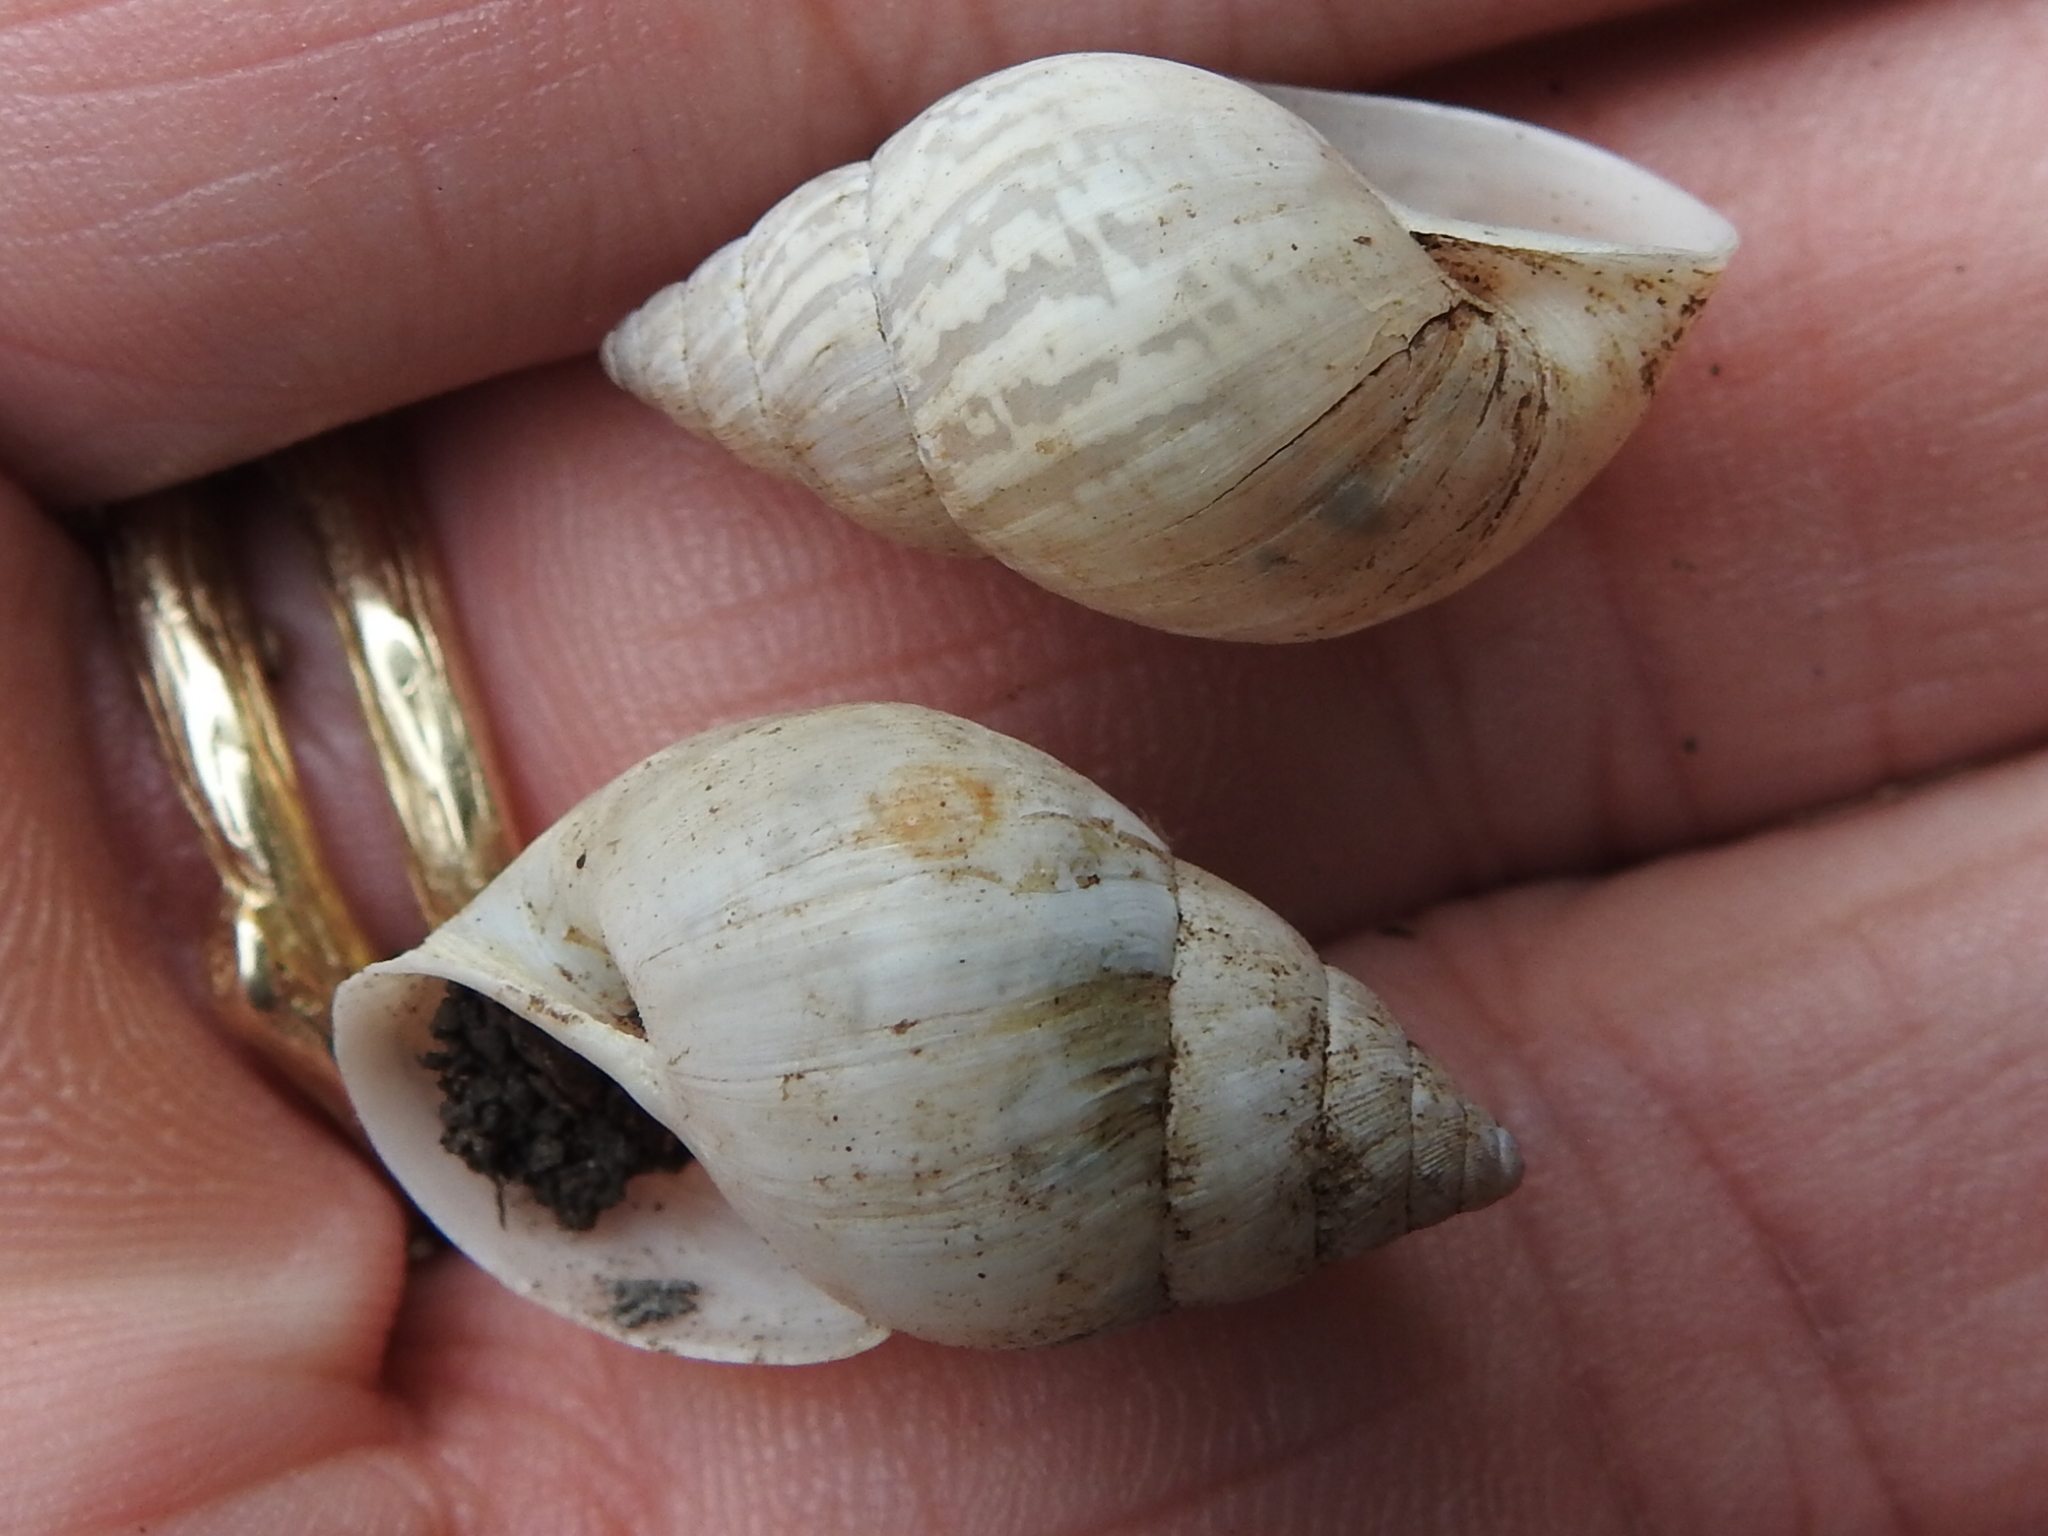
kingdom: Animalia
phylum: Mollusca
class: Gastropoda
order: Stylommatophora
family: Bulimulidae
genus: Rabdotus
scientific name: Rabdotus dealbatus
